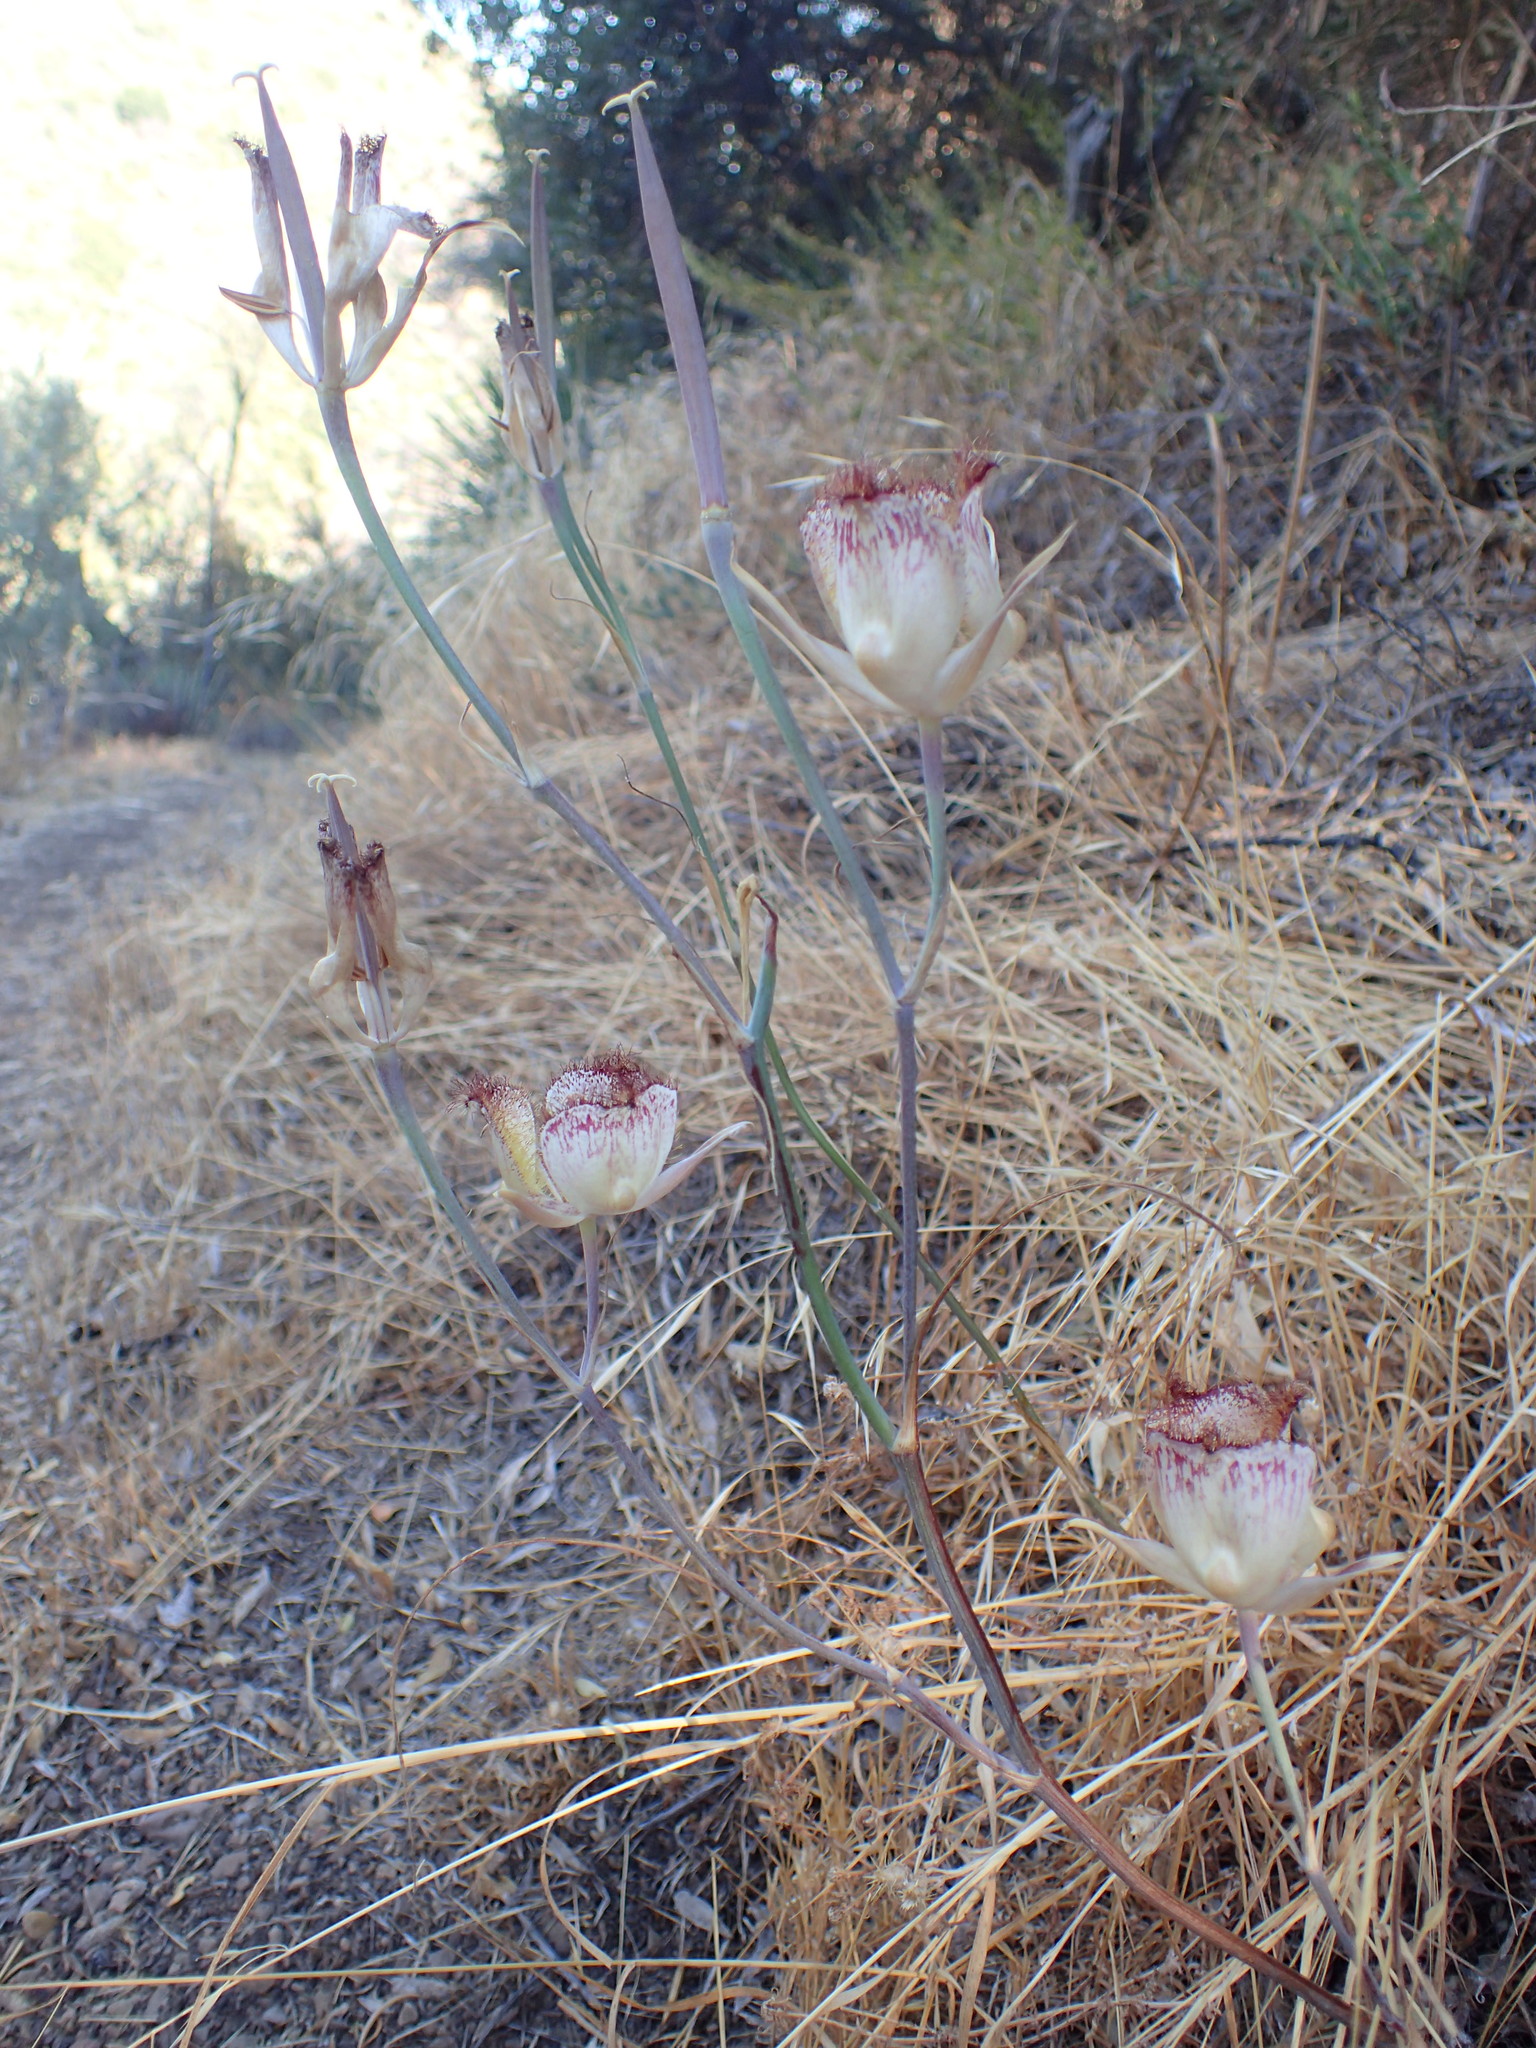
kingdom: Plantae
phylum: Tracheophyta
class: Liliopsida
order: Liliales
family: Liliaceae
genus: Calochortus
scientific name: Calochortus fimbriatus
